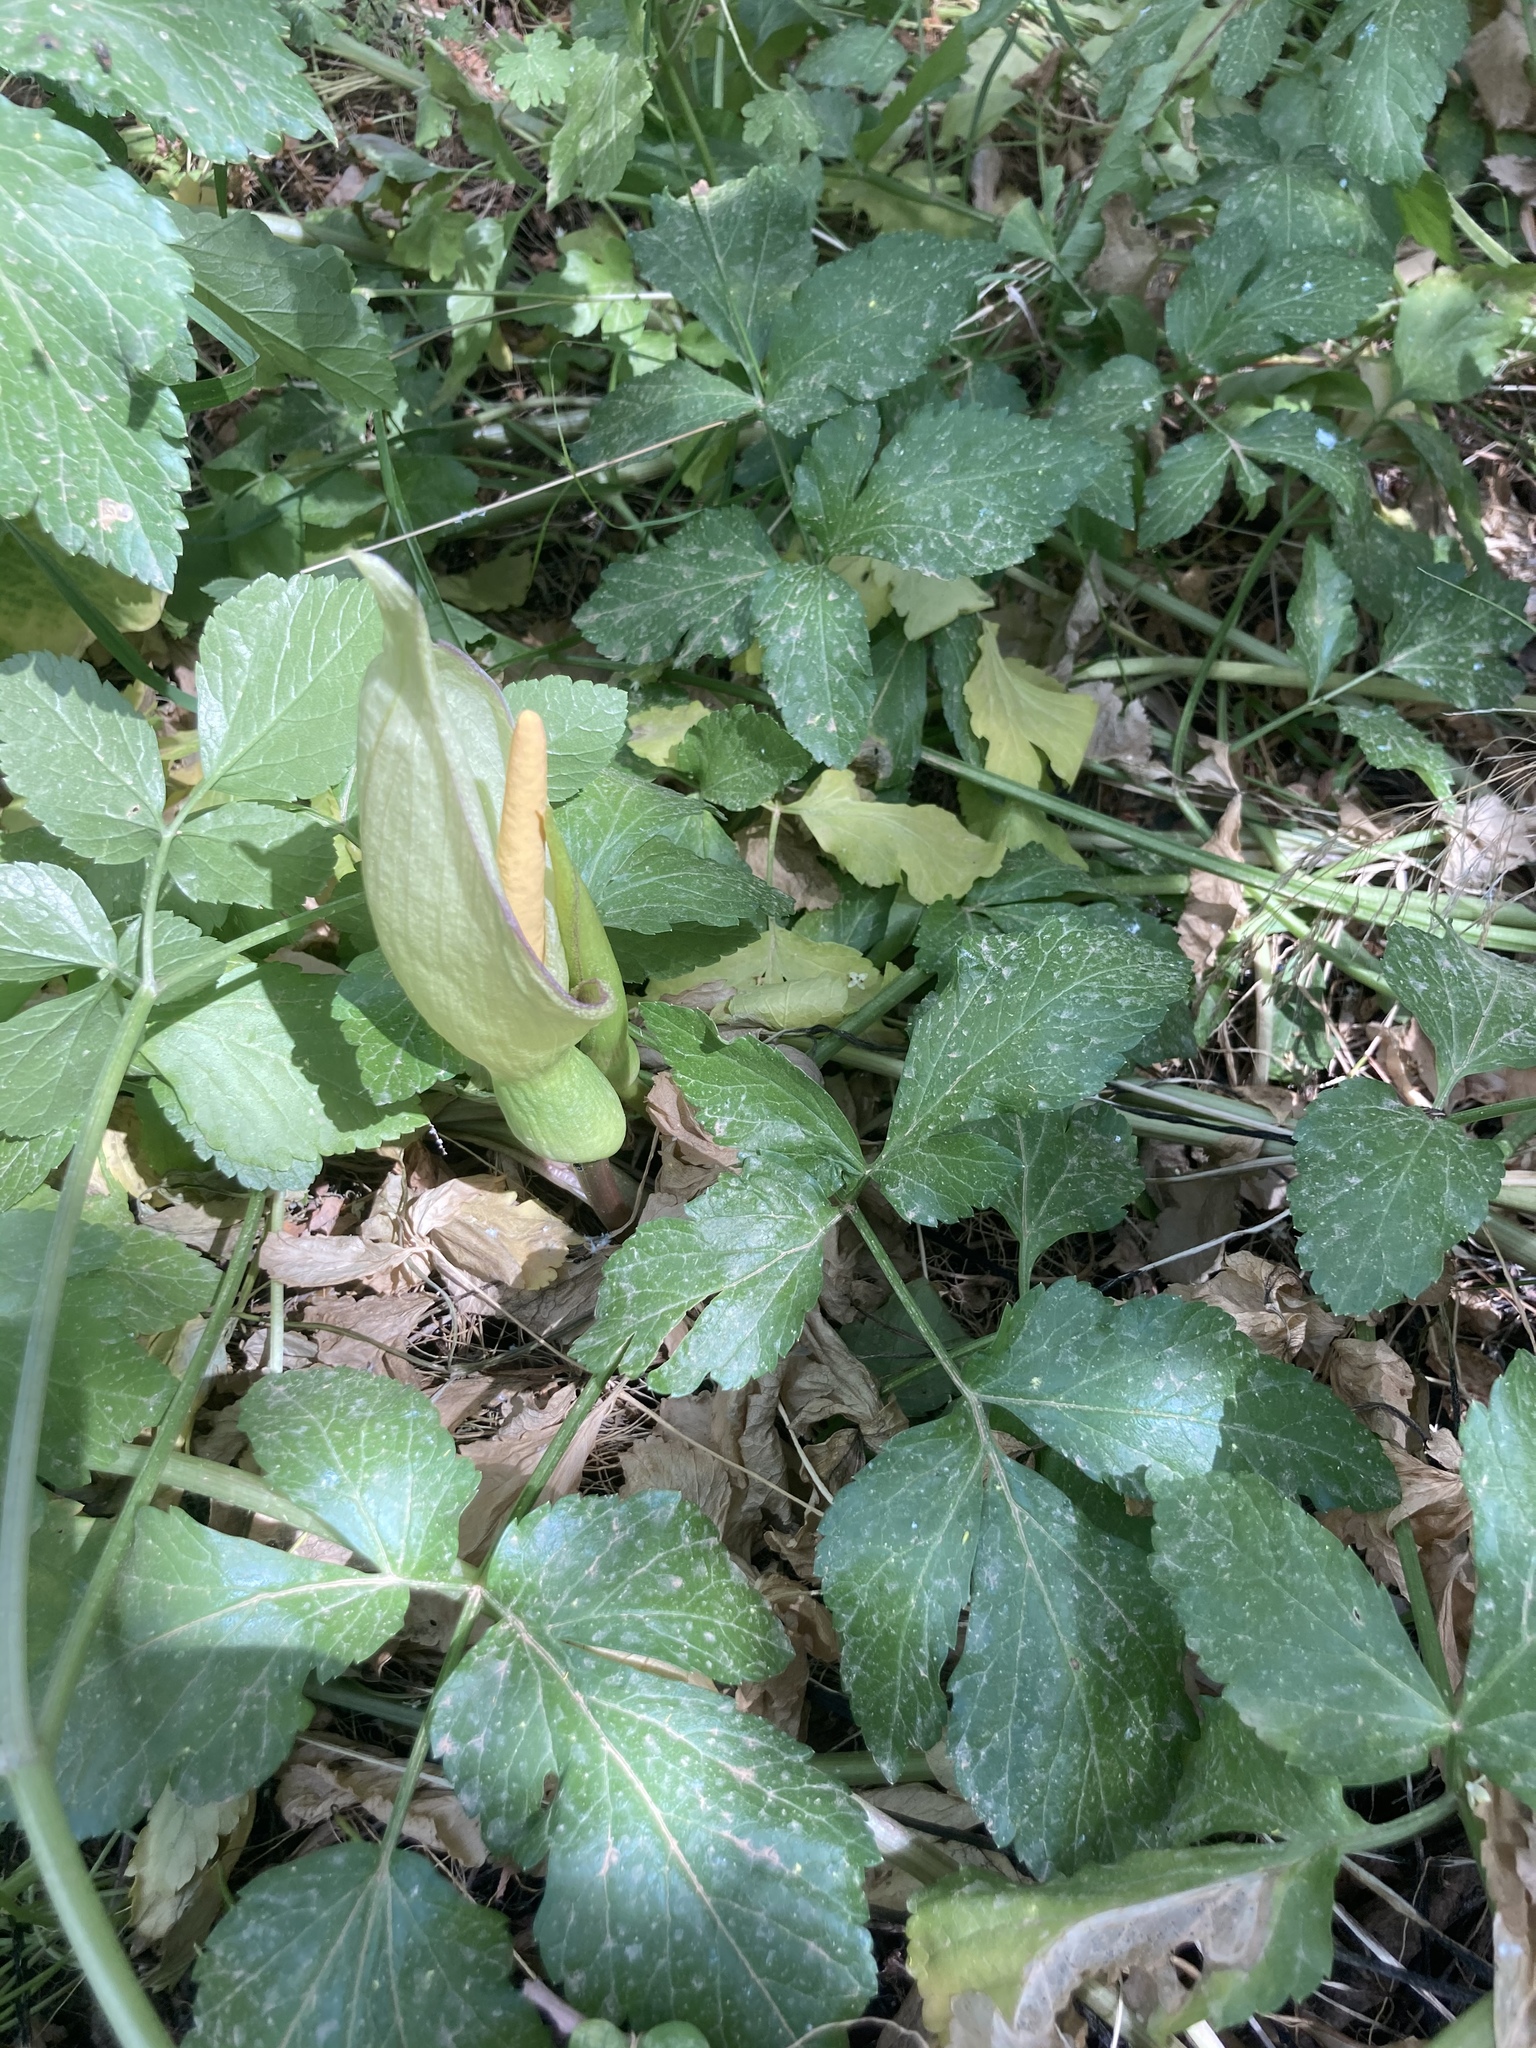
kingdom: Plantae
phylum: Tracheophyta
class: Liliopsida
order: Alismatales
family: Araceae
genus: Arum
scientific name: Arum concinnatum
